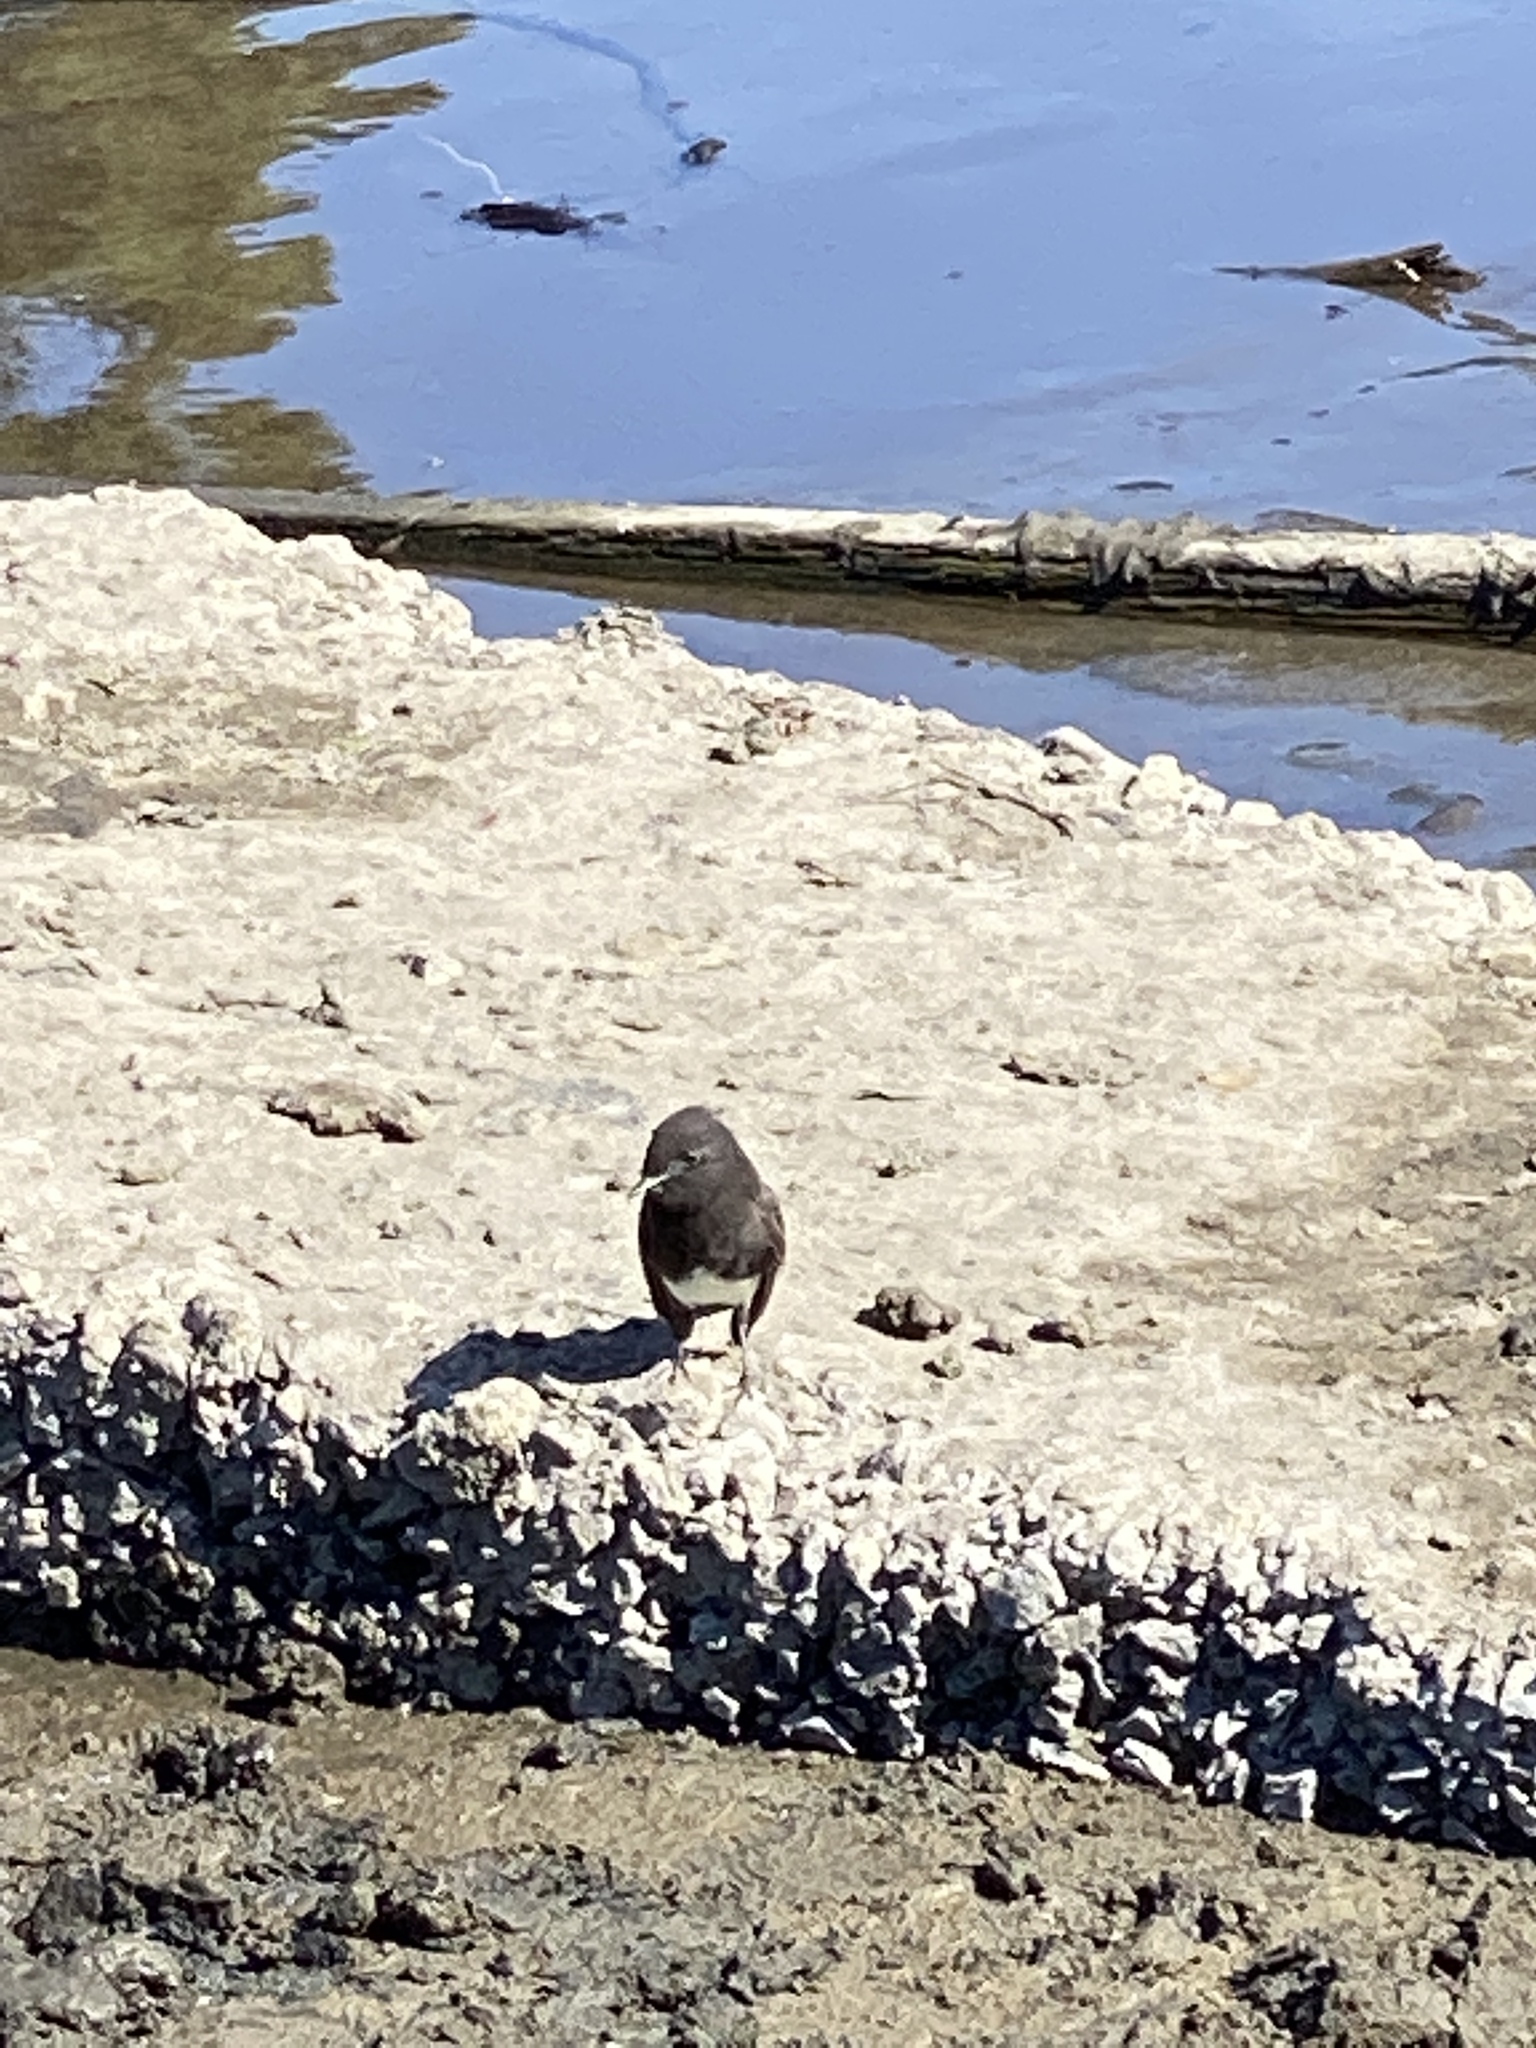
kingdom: Animalia
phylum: Chordata
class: Aves
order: Passeriformes
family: Tyrannidae
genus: Sayornis
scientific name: Sayornis nigricans
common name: Black phoebe
